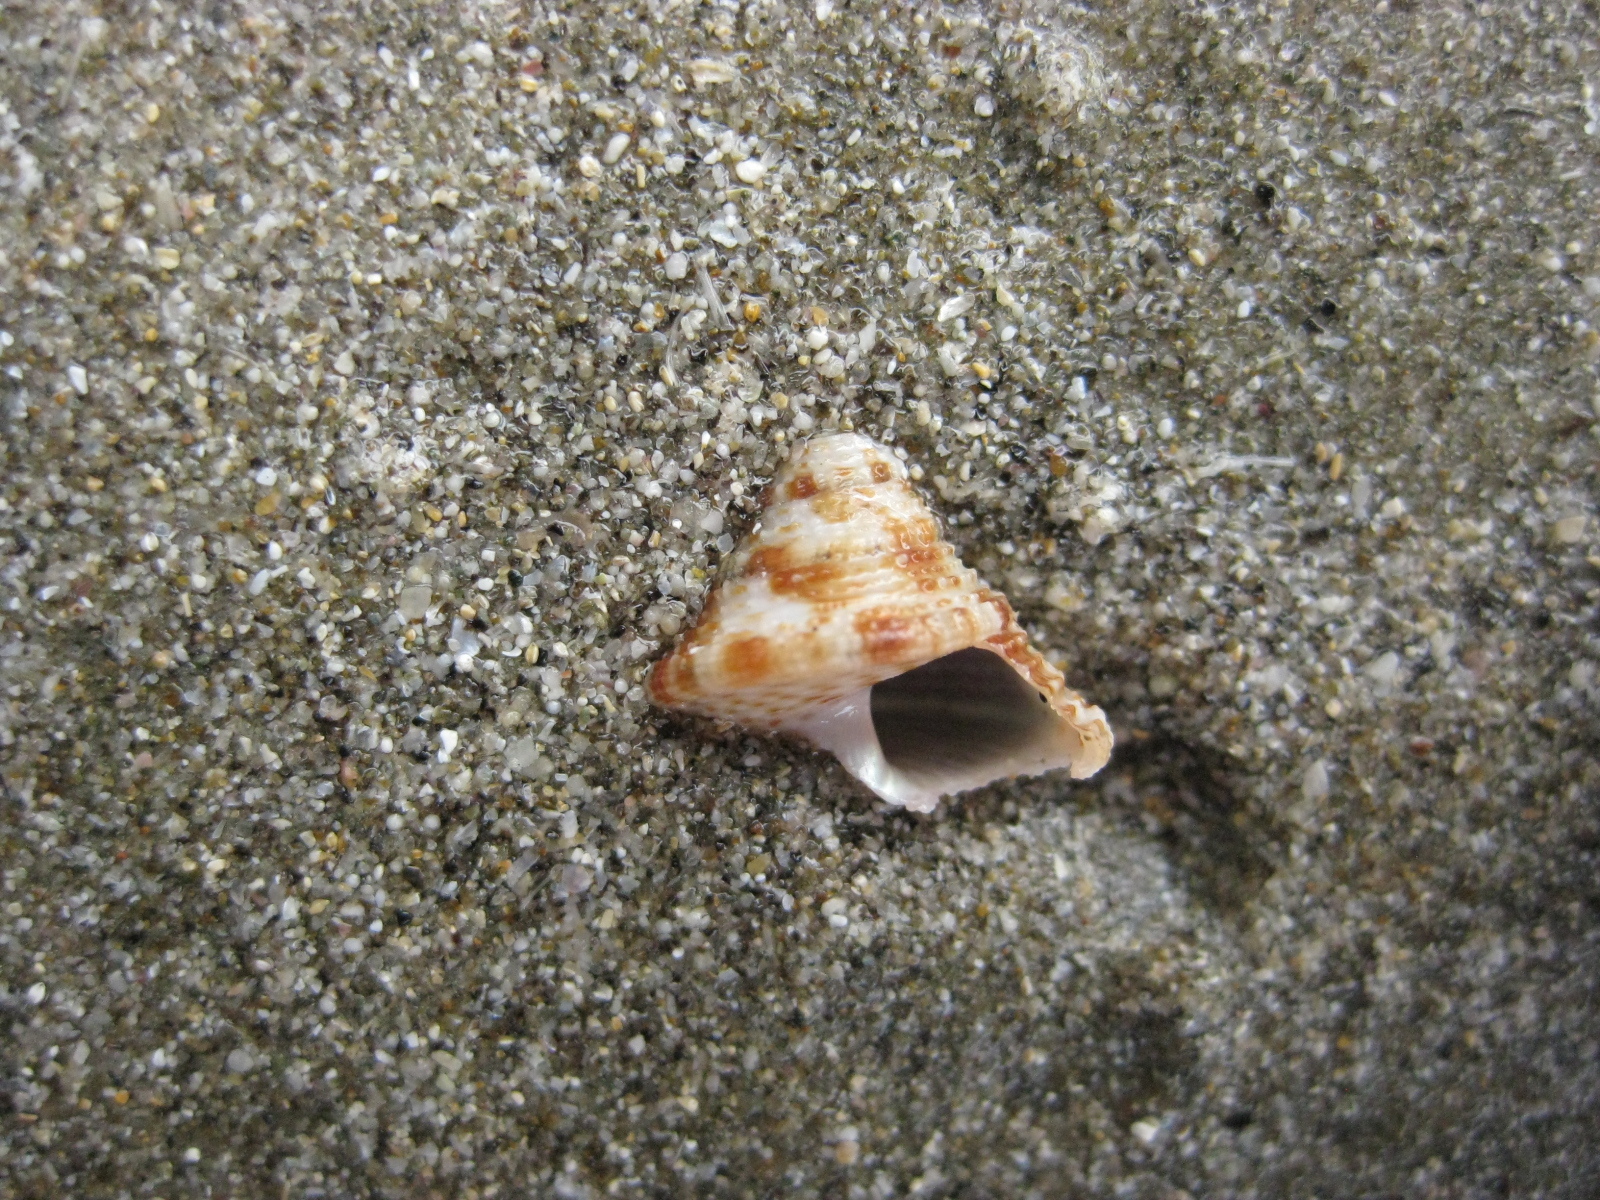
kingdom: Animalia
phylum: Mollusca
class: Gastropoda
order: Trochida
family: Calliostomatidae
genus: Maurea
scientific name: Maurea pellucida
